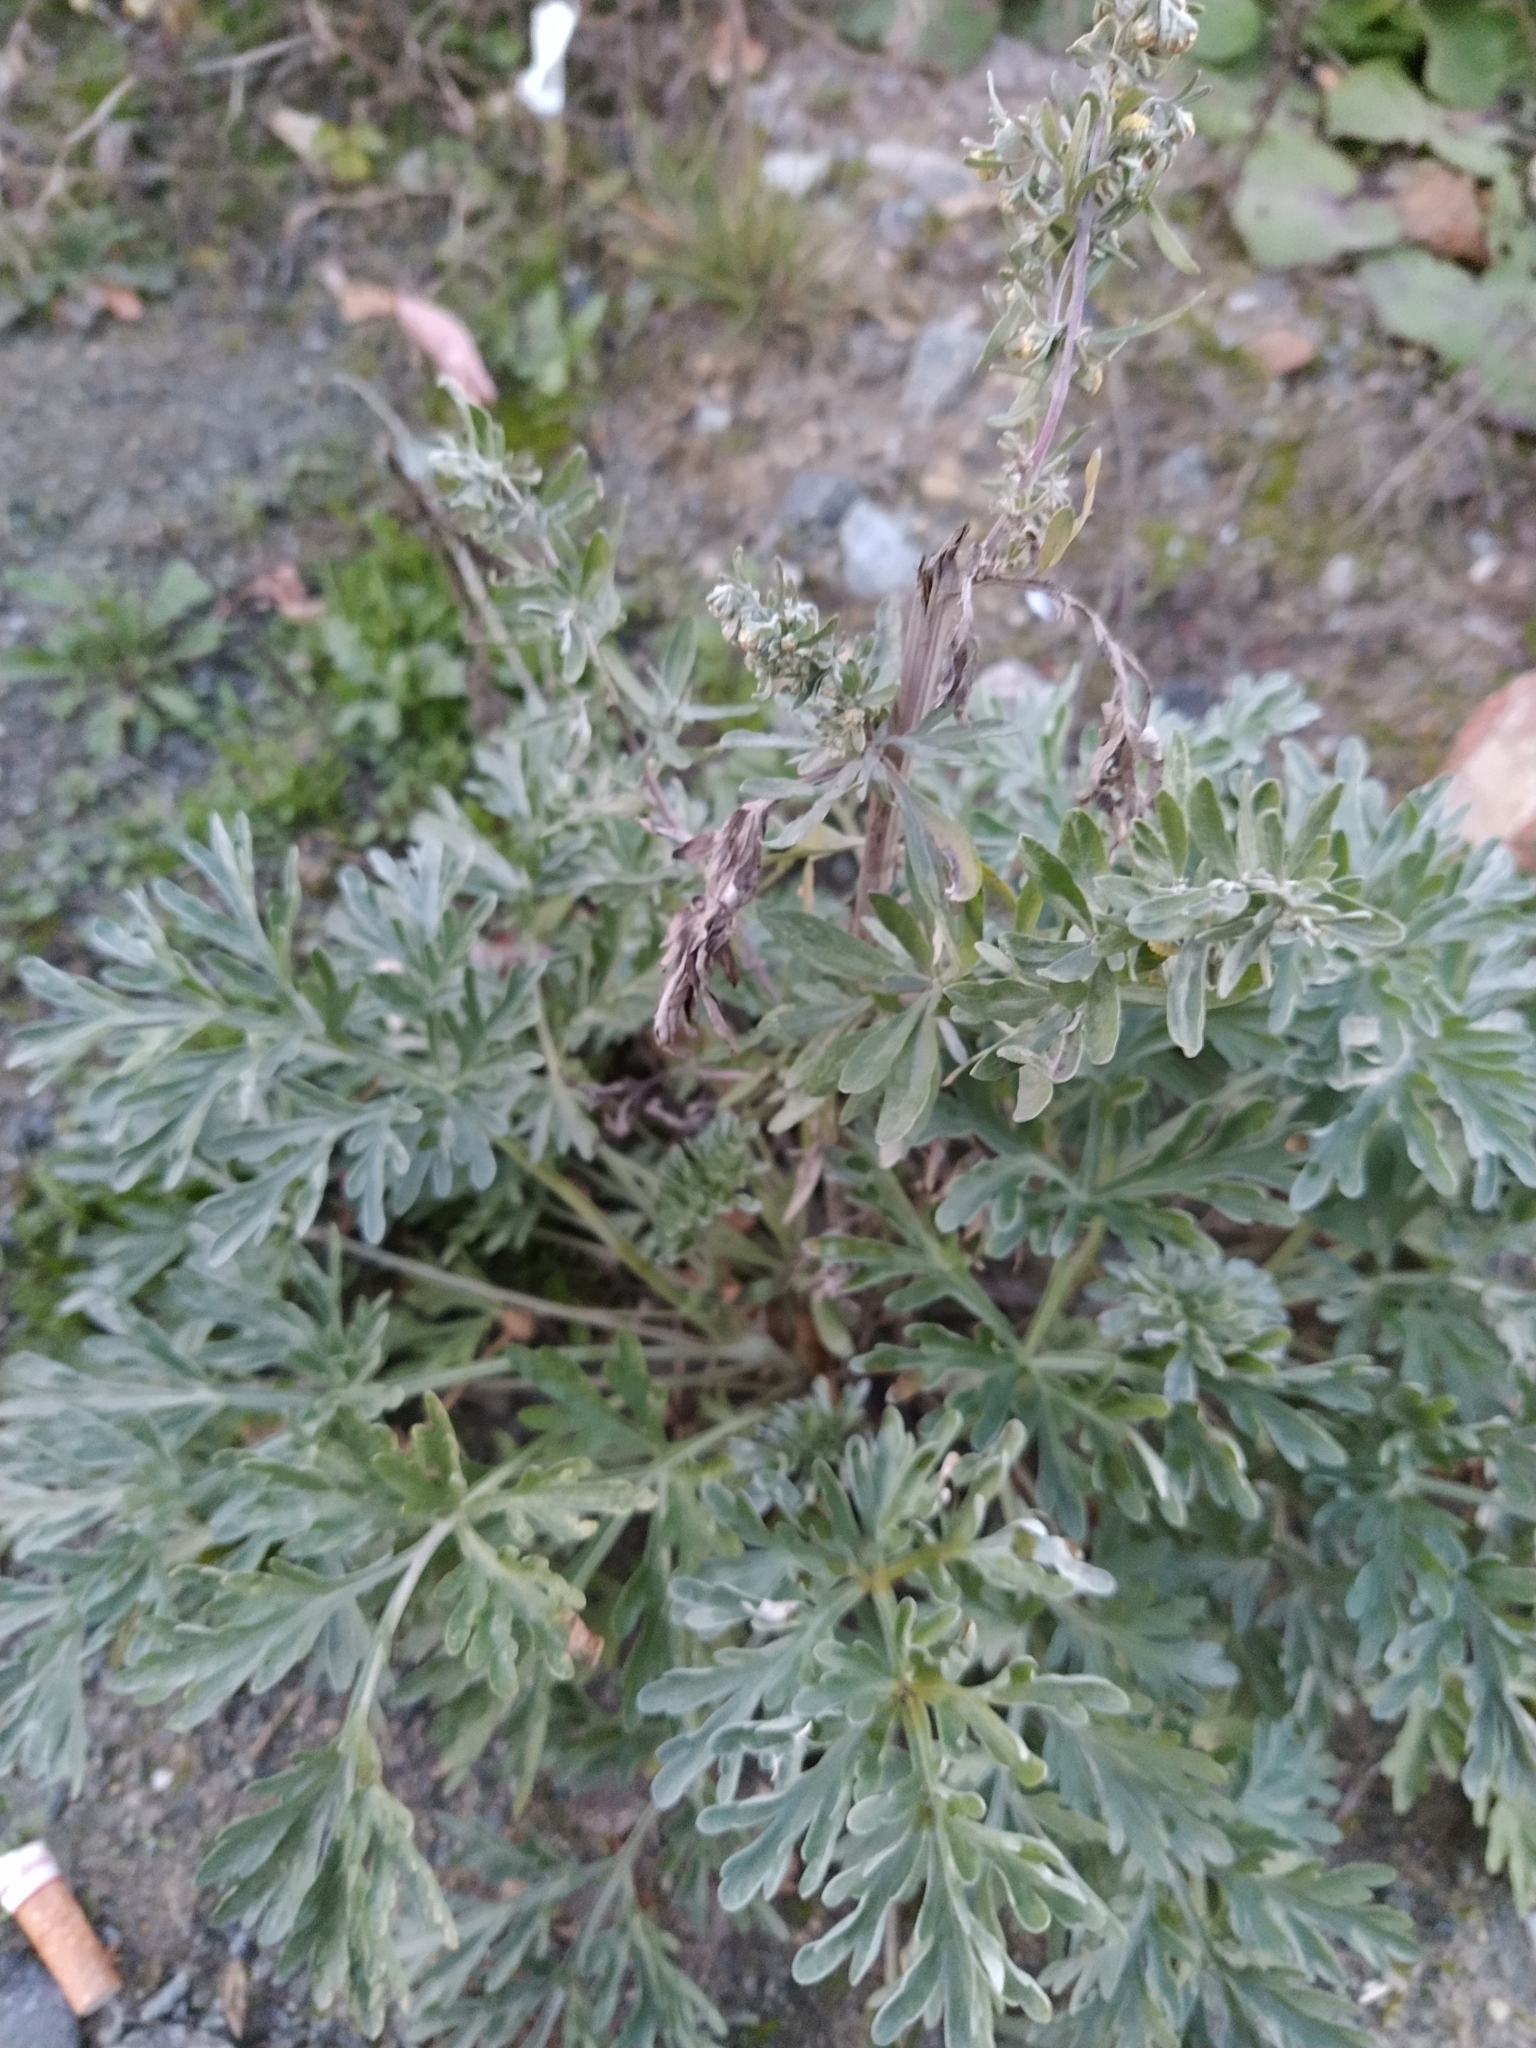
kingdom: Plantae
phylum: Tracheophyta
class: Magnoliopsida
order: Asterales
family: Asteraceae
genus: Artemisia
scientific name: Artemisia absinthium
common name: Wormwood
